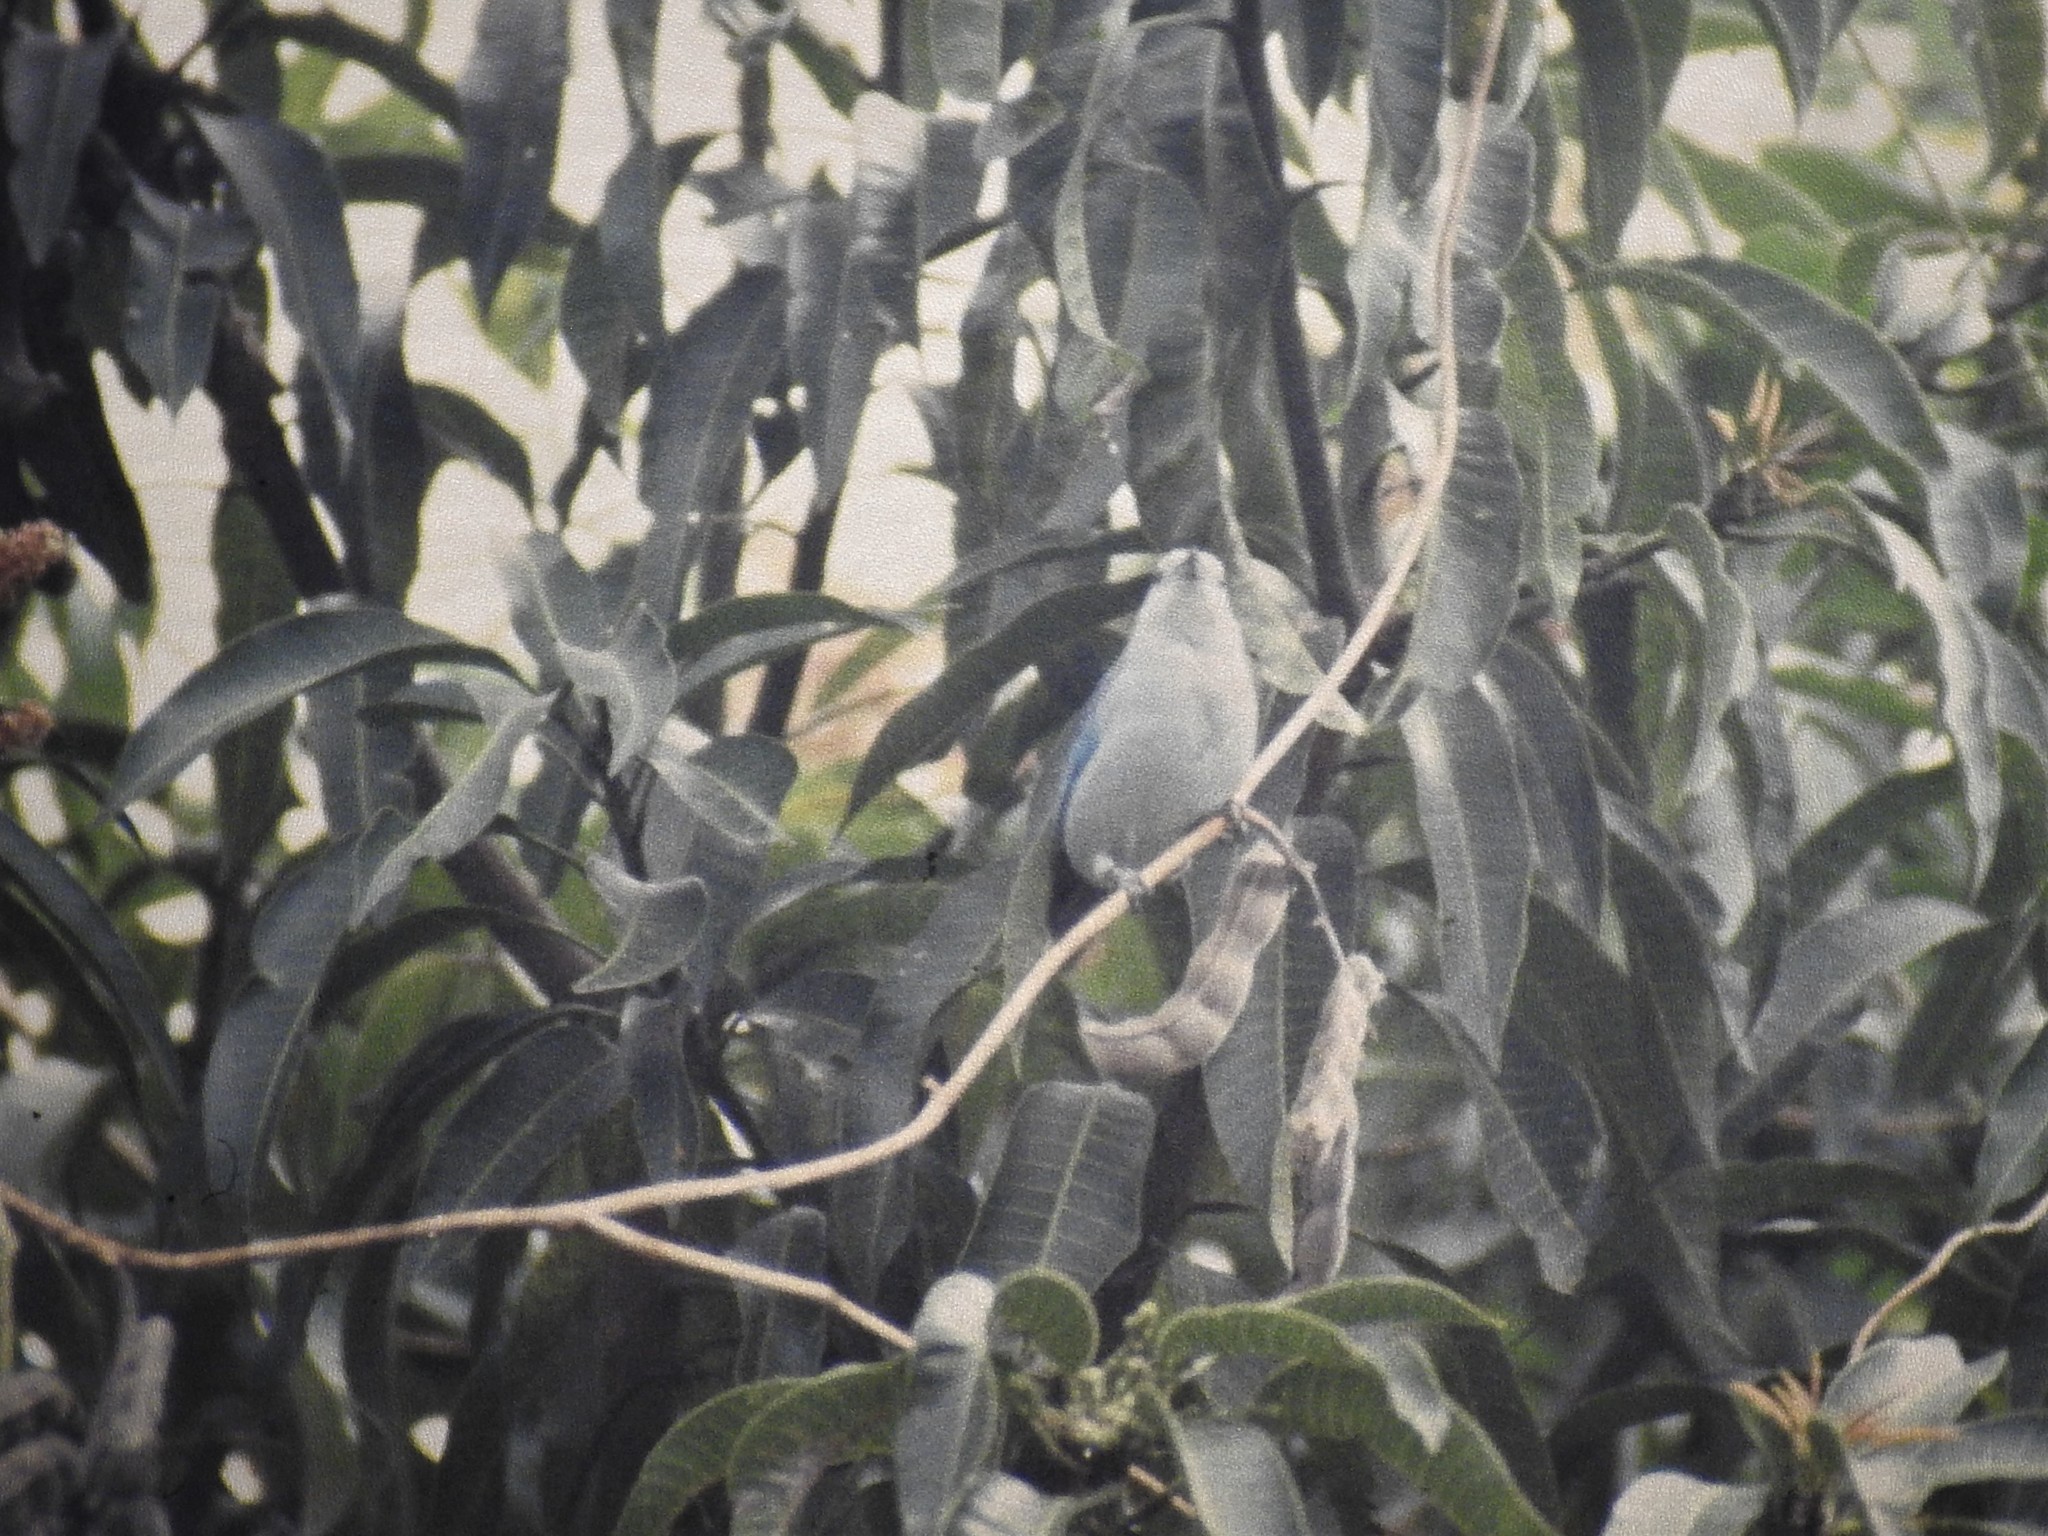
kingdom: Animalia
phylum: Chordata
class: Aves
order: Passeriformes
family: Thraupidae
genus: Thraupis
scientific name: Thraupis episcopus
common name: Blue-grey tanager
